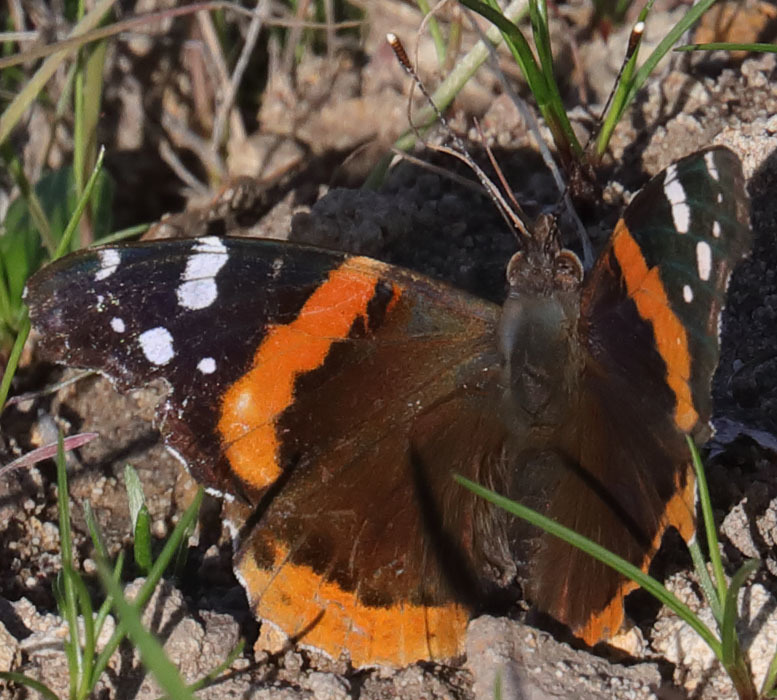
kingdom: Animalia
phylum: Arthropoda
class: Insecta
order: Lepidoptera
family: Nymphalidae
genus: Vanessa
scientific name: Vanessa atalanta
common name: Red admiral
